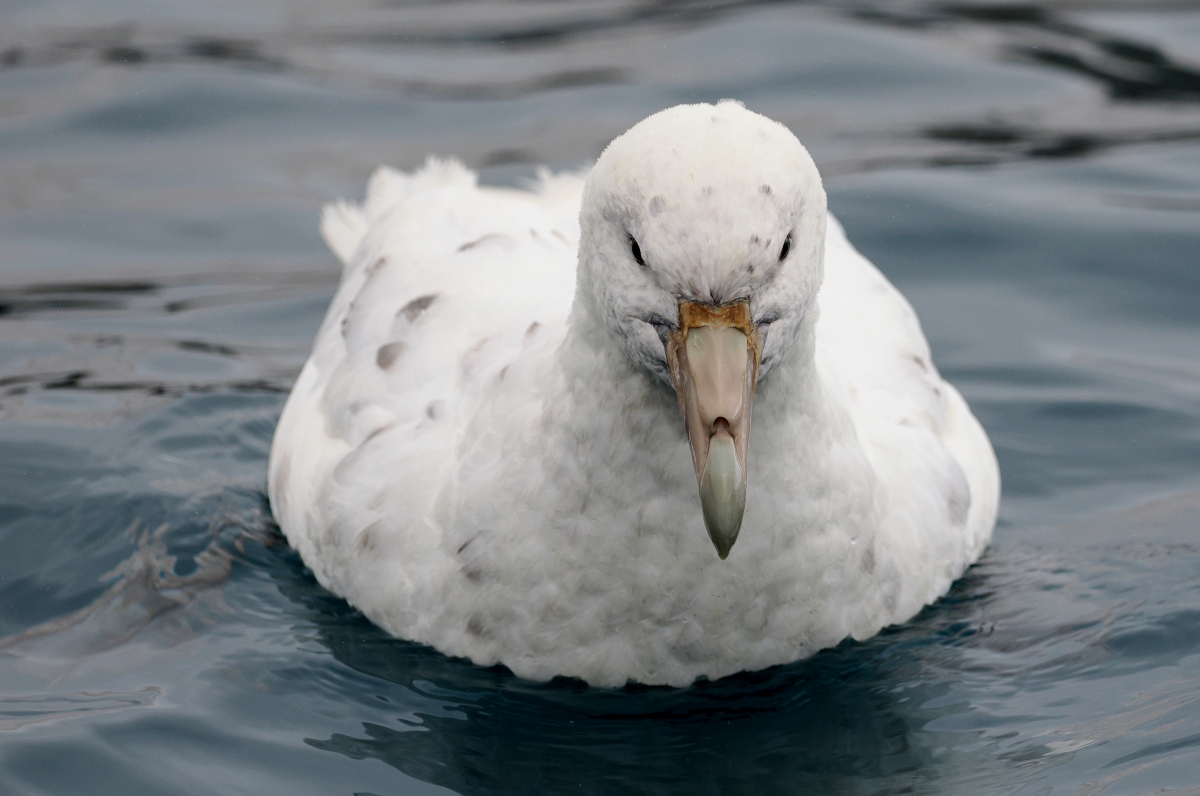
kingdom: Animalia
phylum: Chordata
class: Aves
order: Procellariiformes
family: Procellariidae
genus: Macronectes
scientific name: Macronectes giganteus
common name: Southern giant petrel
